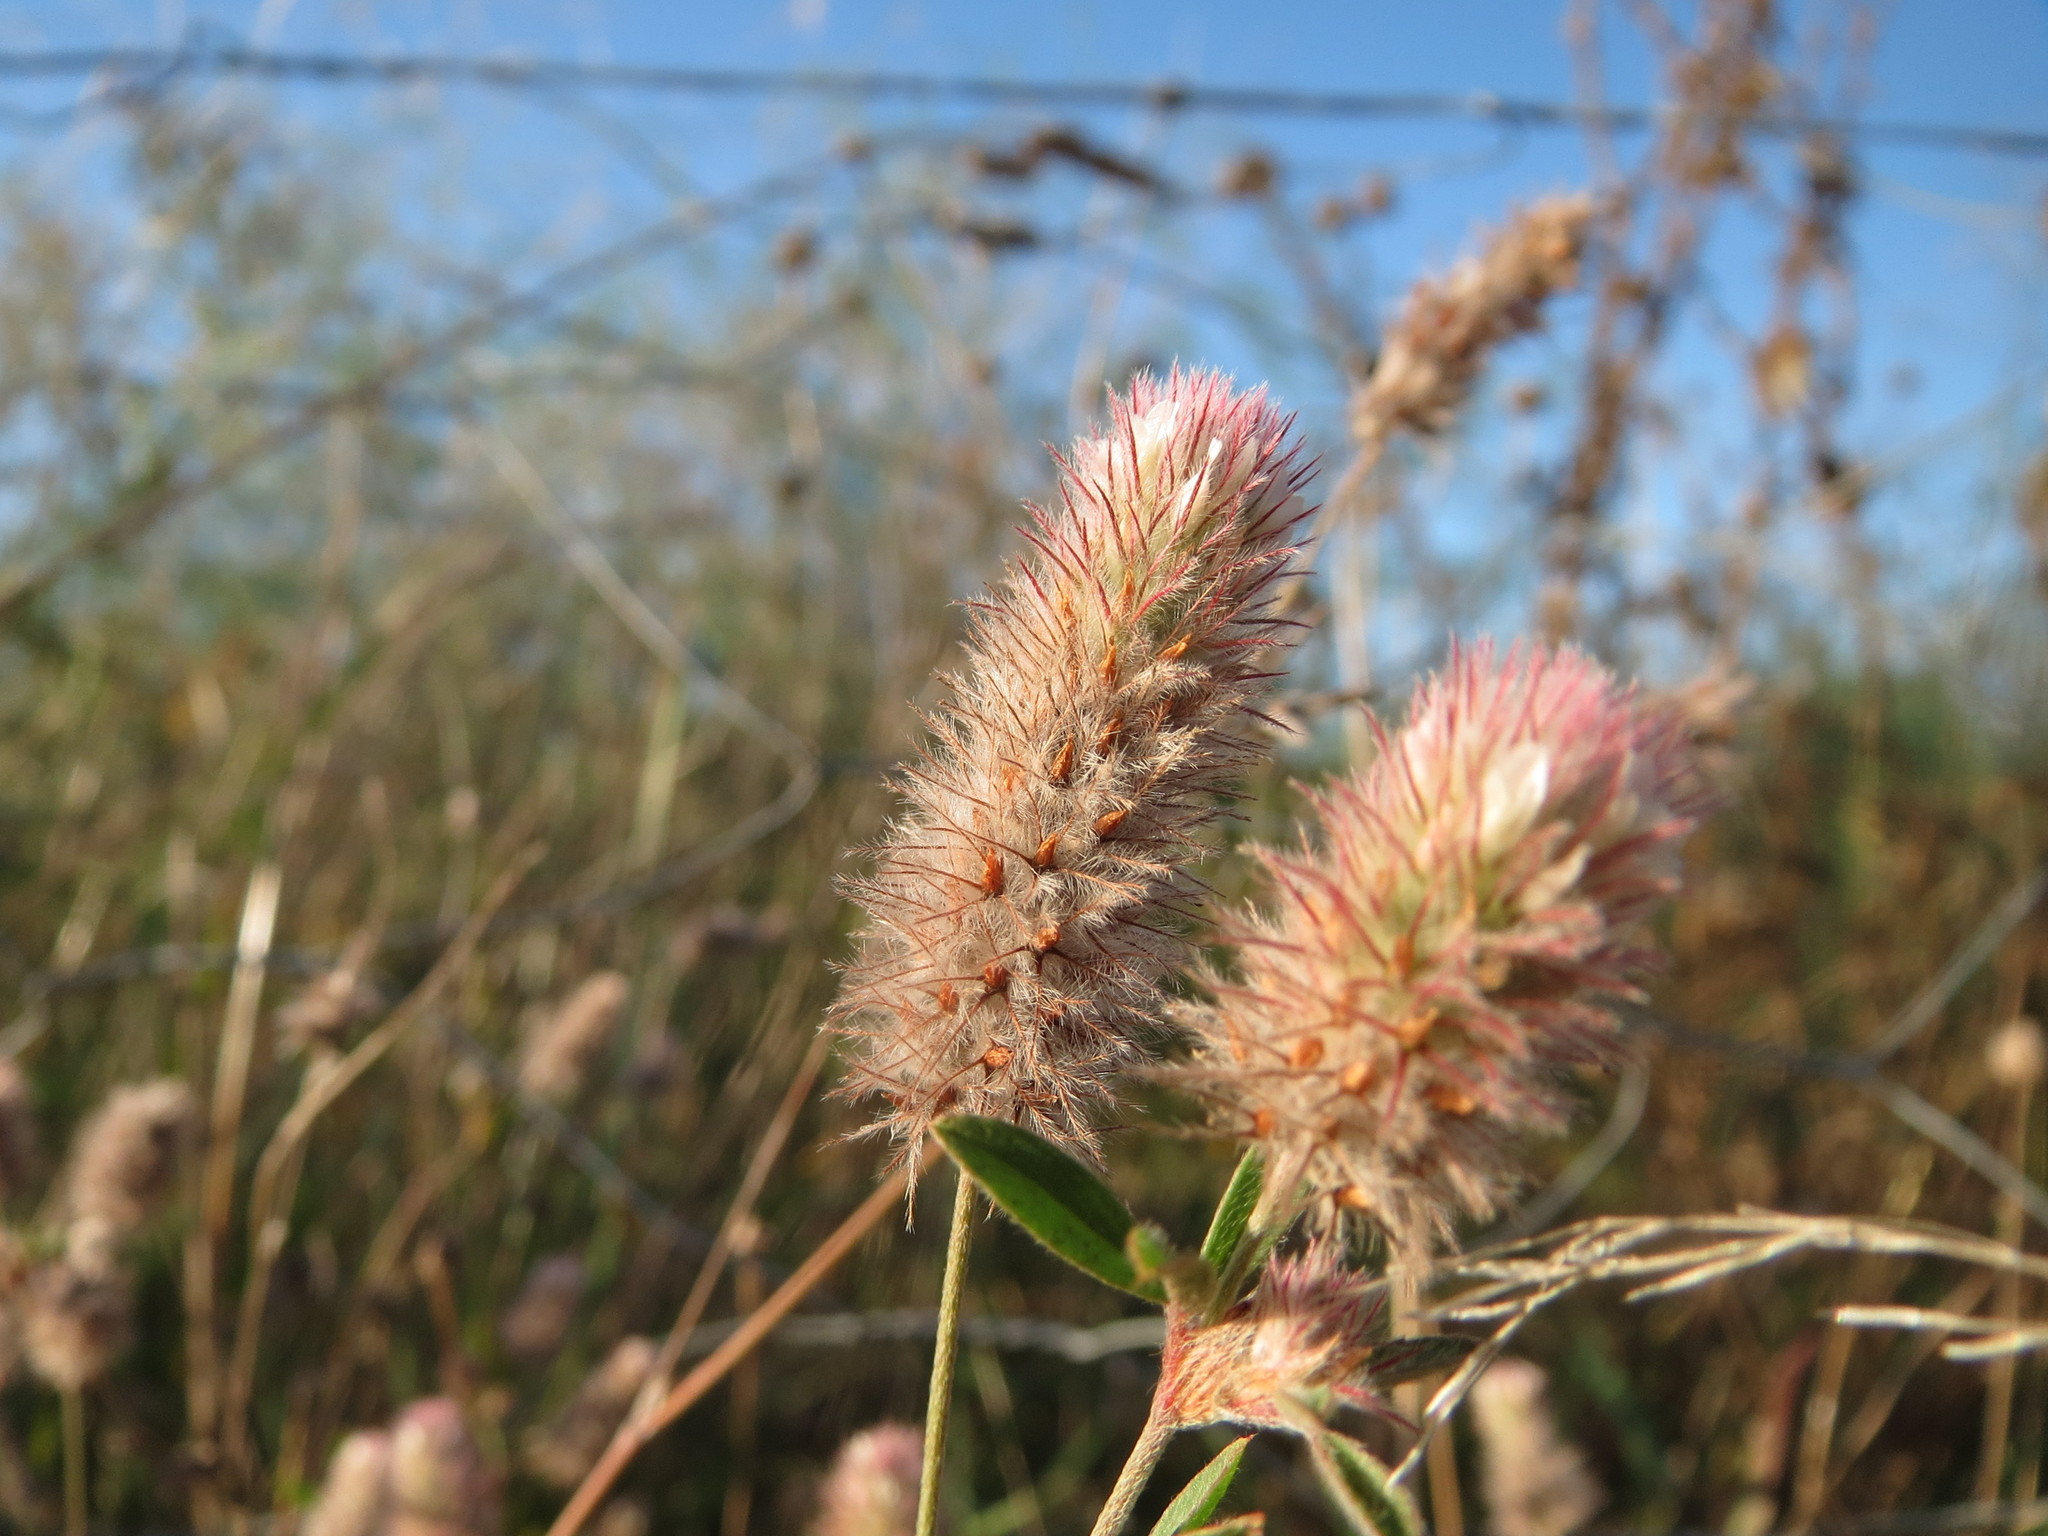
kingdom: Plantae
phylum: Tracheophyta
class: Magnoliopsida
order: Fabales
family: Fabaceae
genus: Trifolium
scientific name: Trifolium arvense
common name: Hare's-foot clover
